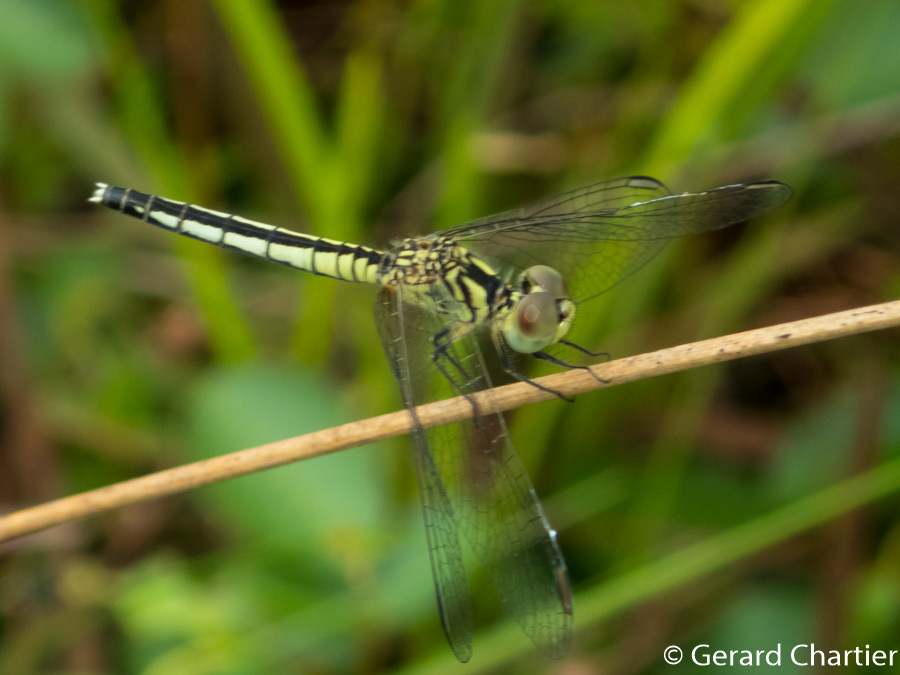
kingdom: Animalia
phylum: Arthropoda
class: Insecta
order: Odonata
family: Libellulidae
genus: Diplacodes
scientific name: Diplacodes nebulosa
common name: Black-tipped percher
